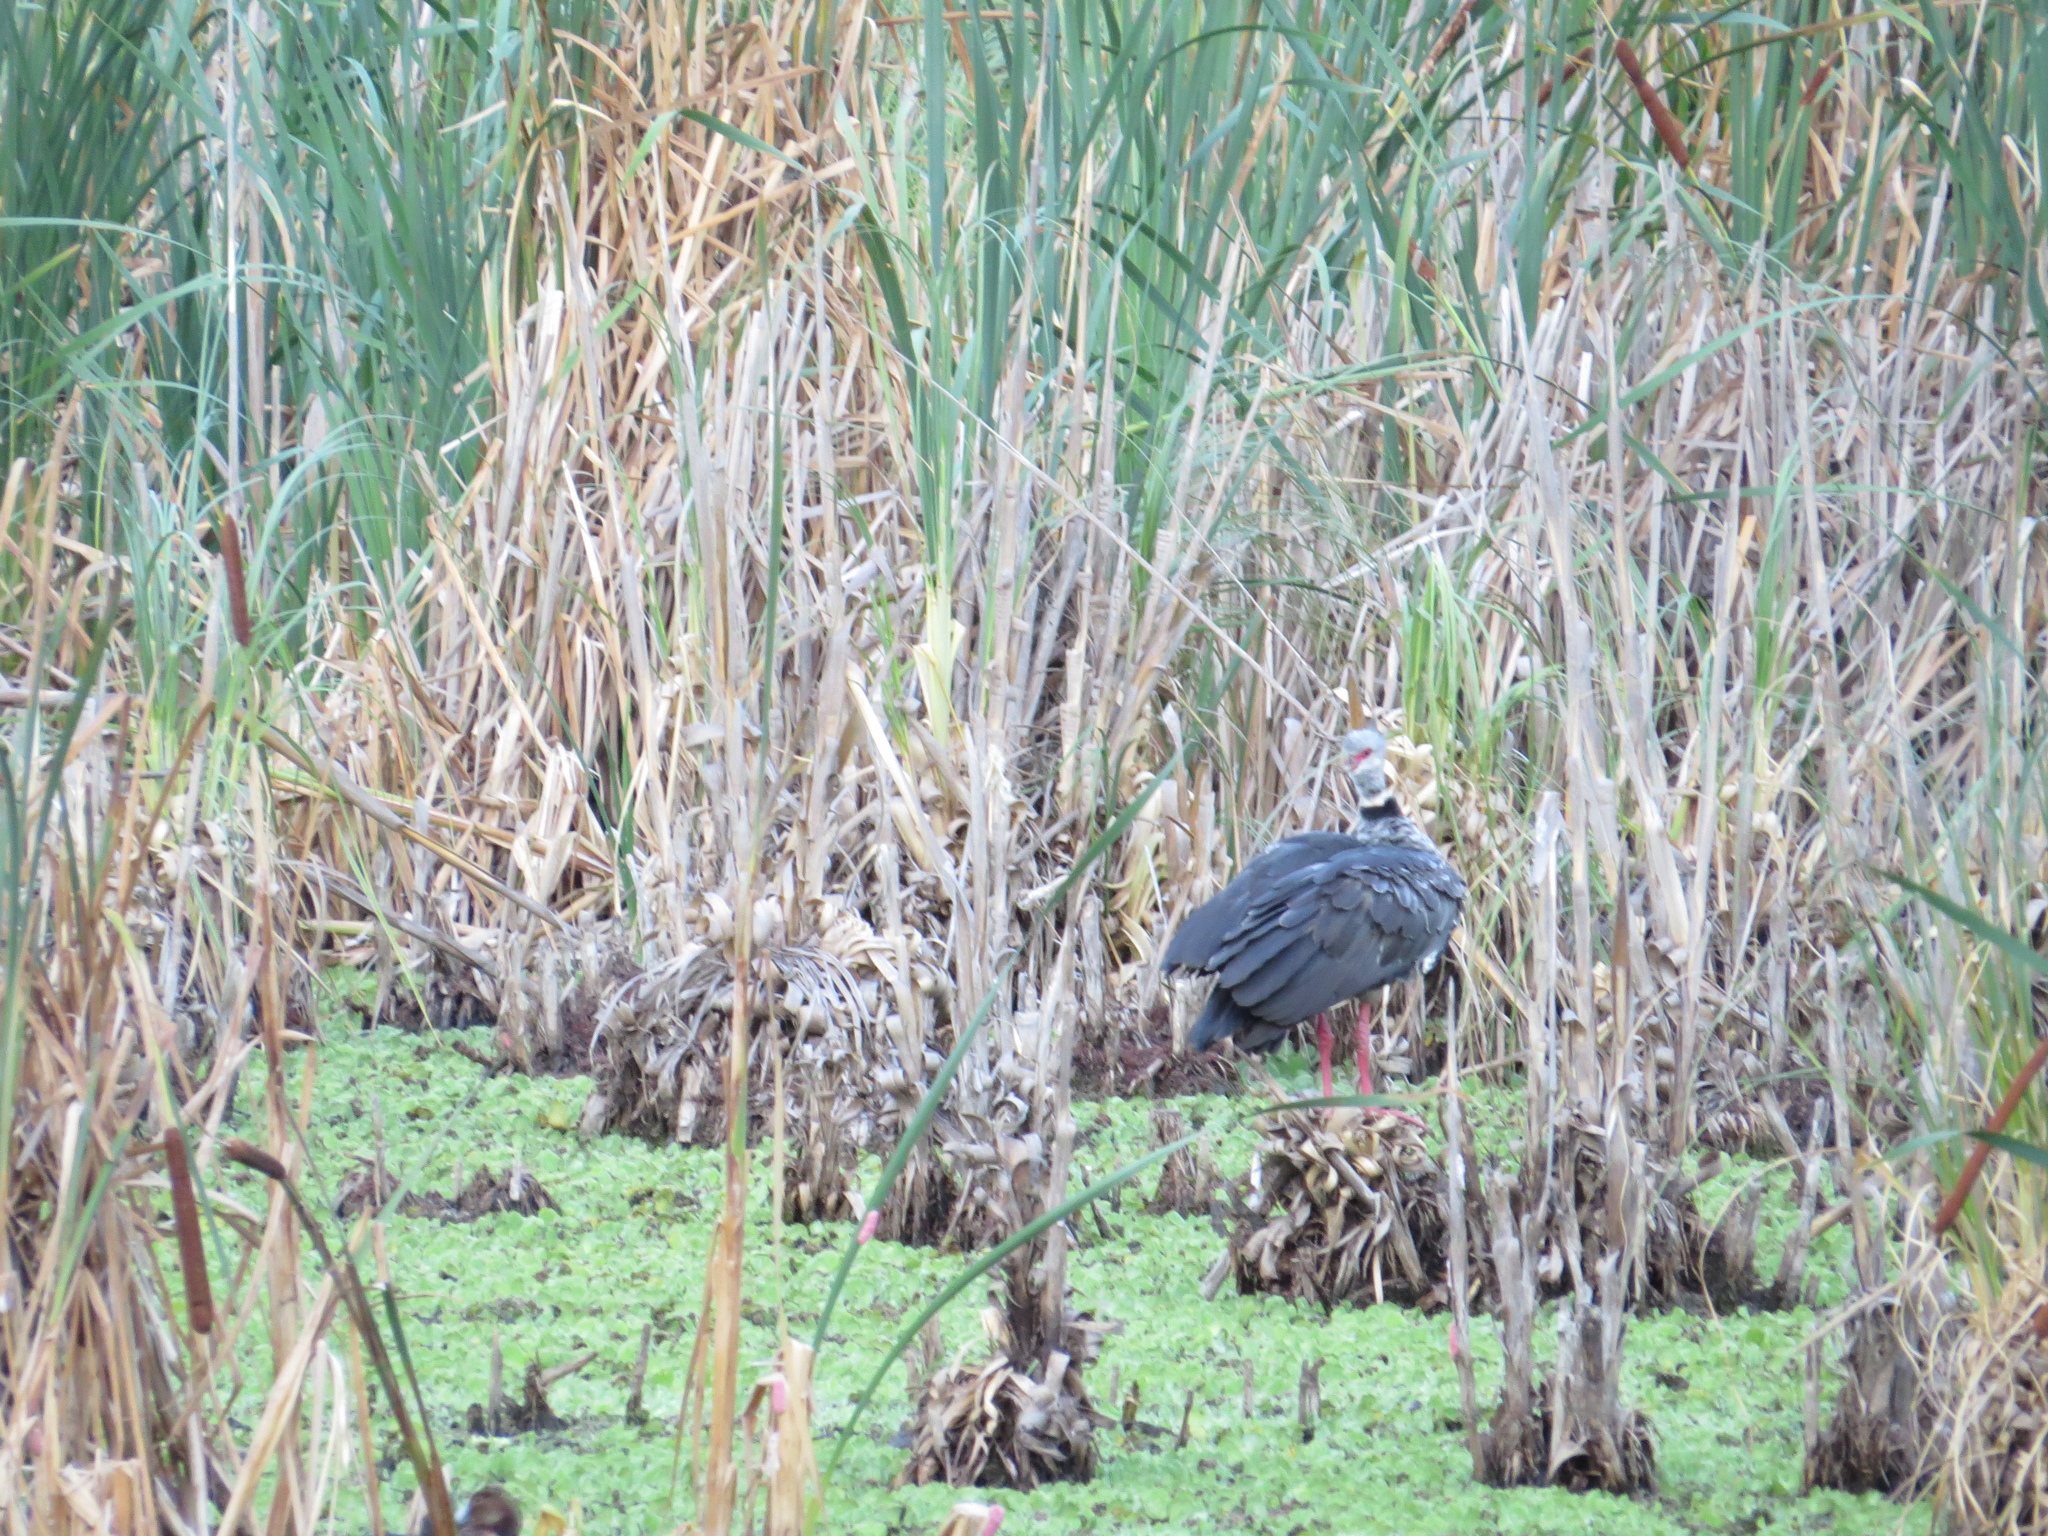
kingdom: Animalia
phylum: Chordata
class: Aves
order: Anseriformes
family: Anhimidae
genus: Chauna
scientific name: Chauna torquata
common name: Southern screamer
